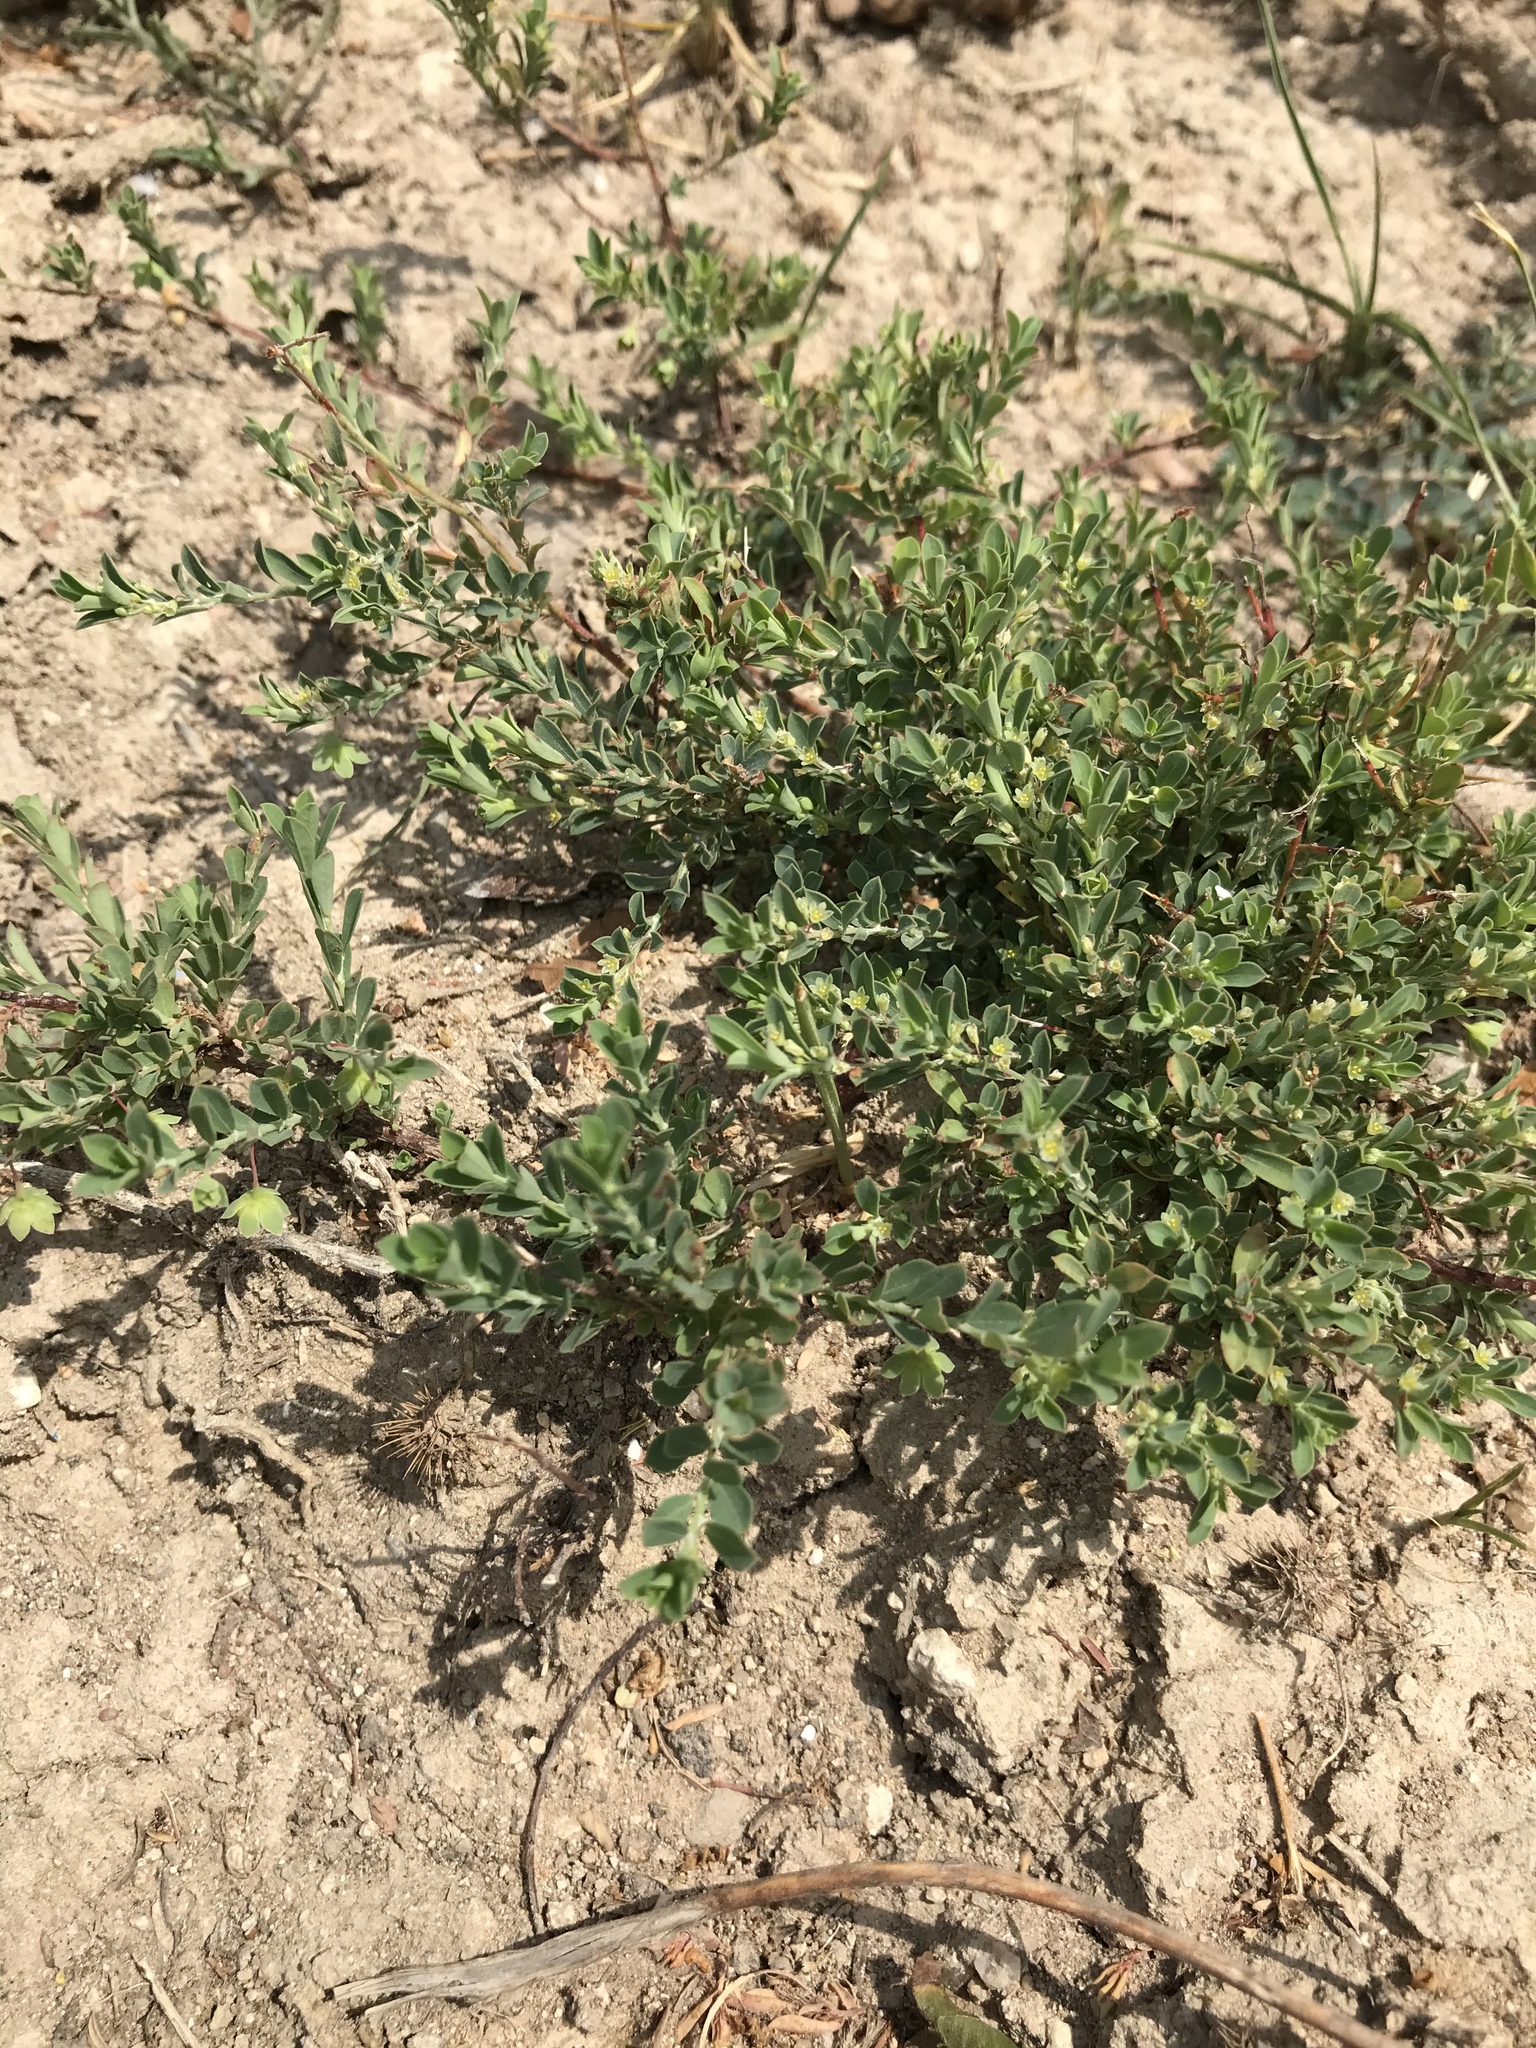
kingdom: Plantae
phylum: Tracheophyta
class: Magnoliopsida
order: Malpighiales
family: Phyllanthaceae
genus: Phyllanthus
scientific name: Phyllanthus polygonoides
